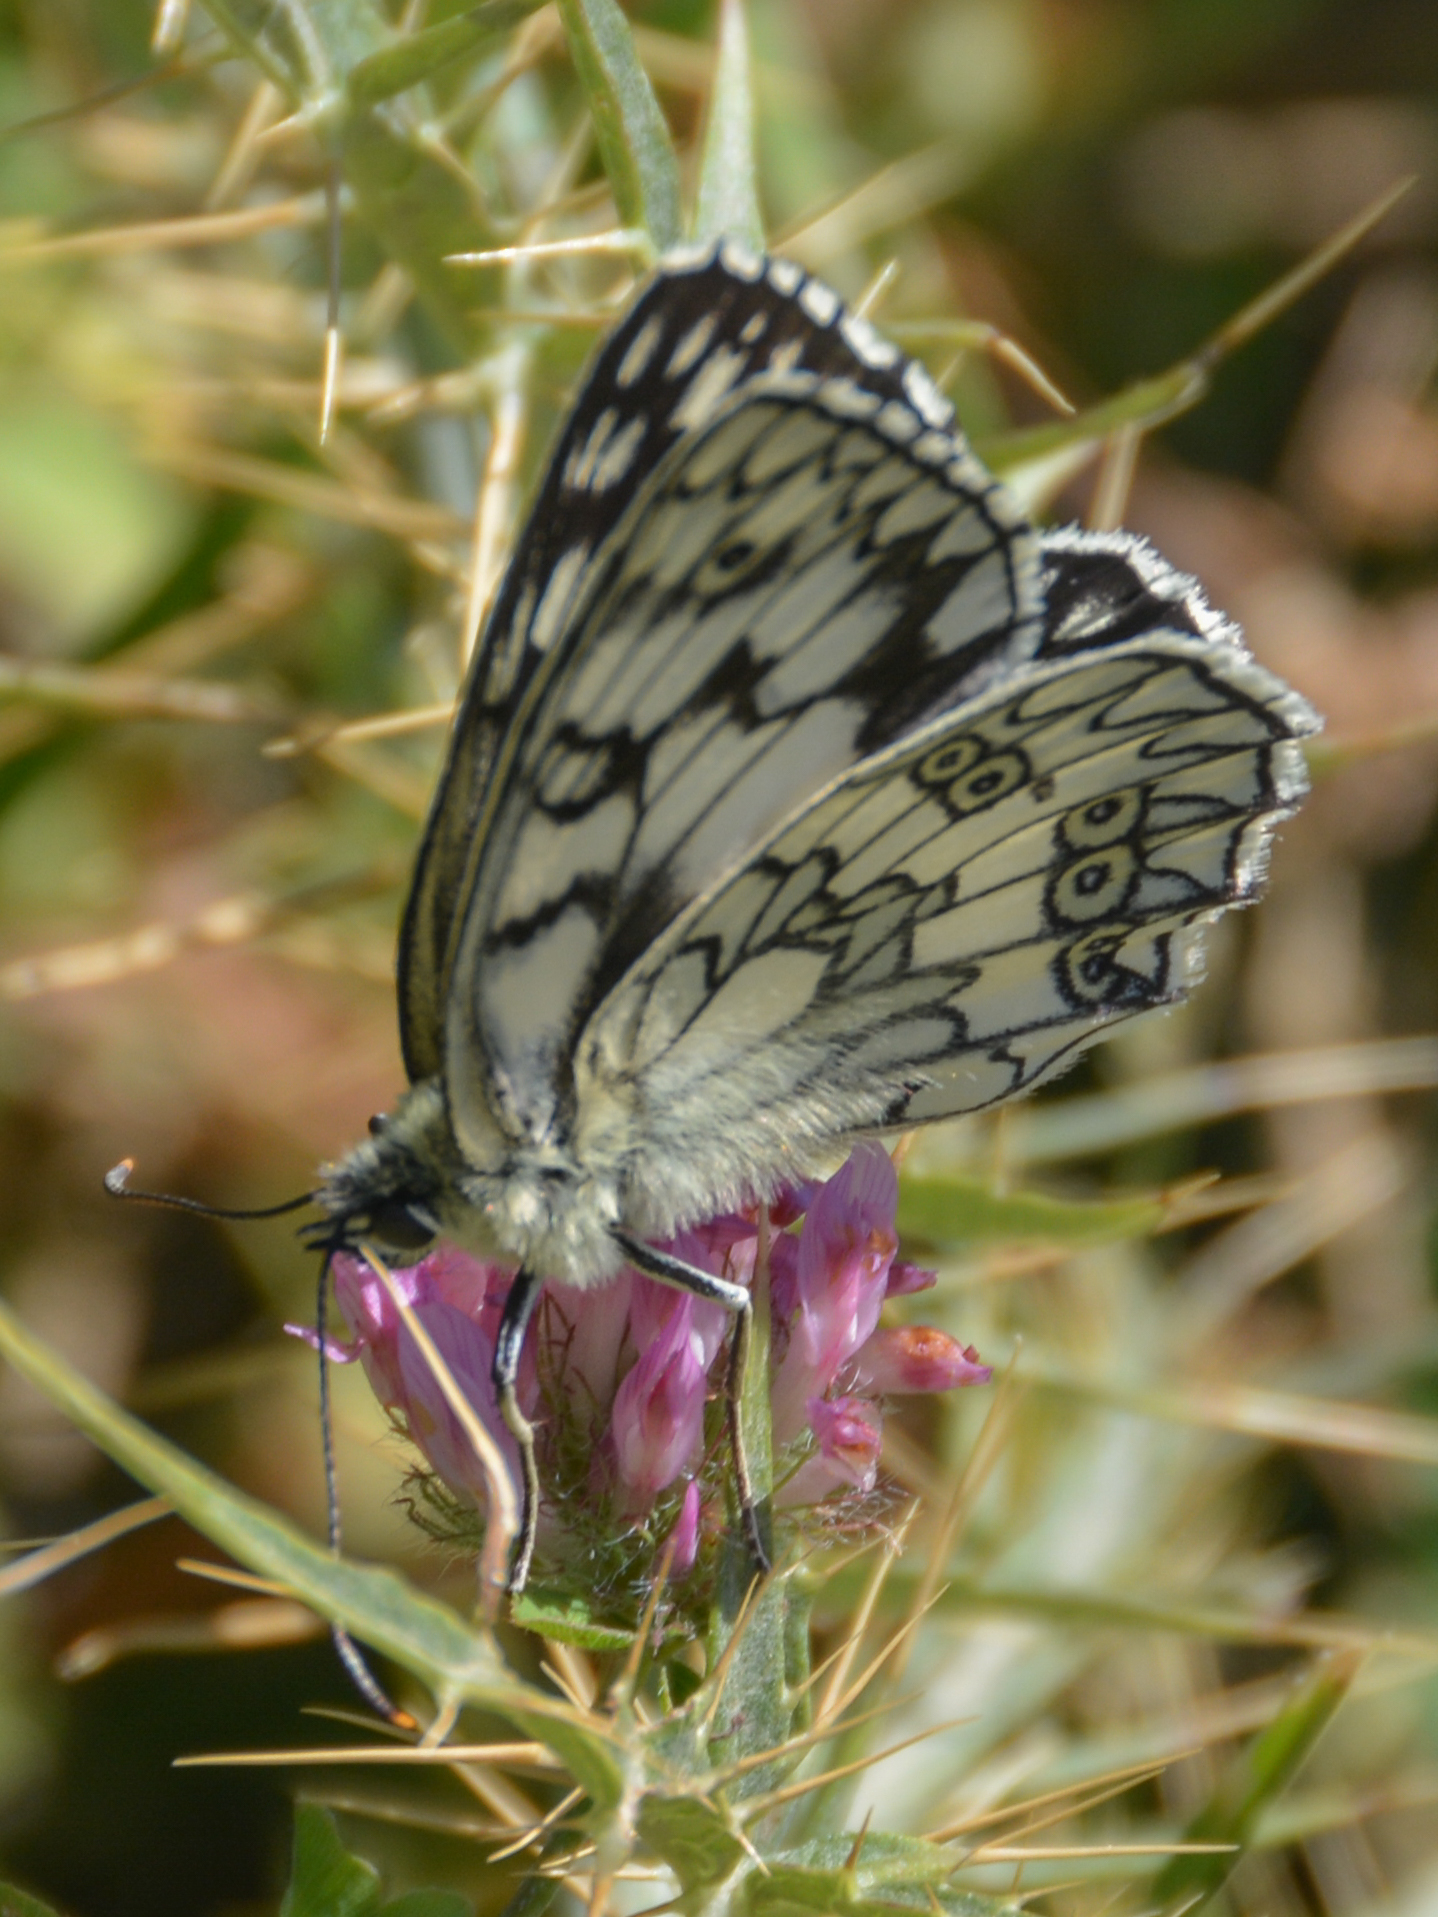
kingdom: Animalia
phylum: Arthropoda
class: Insecta
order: Lepidoptera
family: Nymphalidae
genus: Melanargia
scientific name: Melanargia japygia
